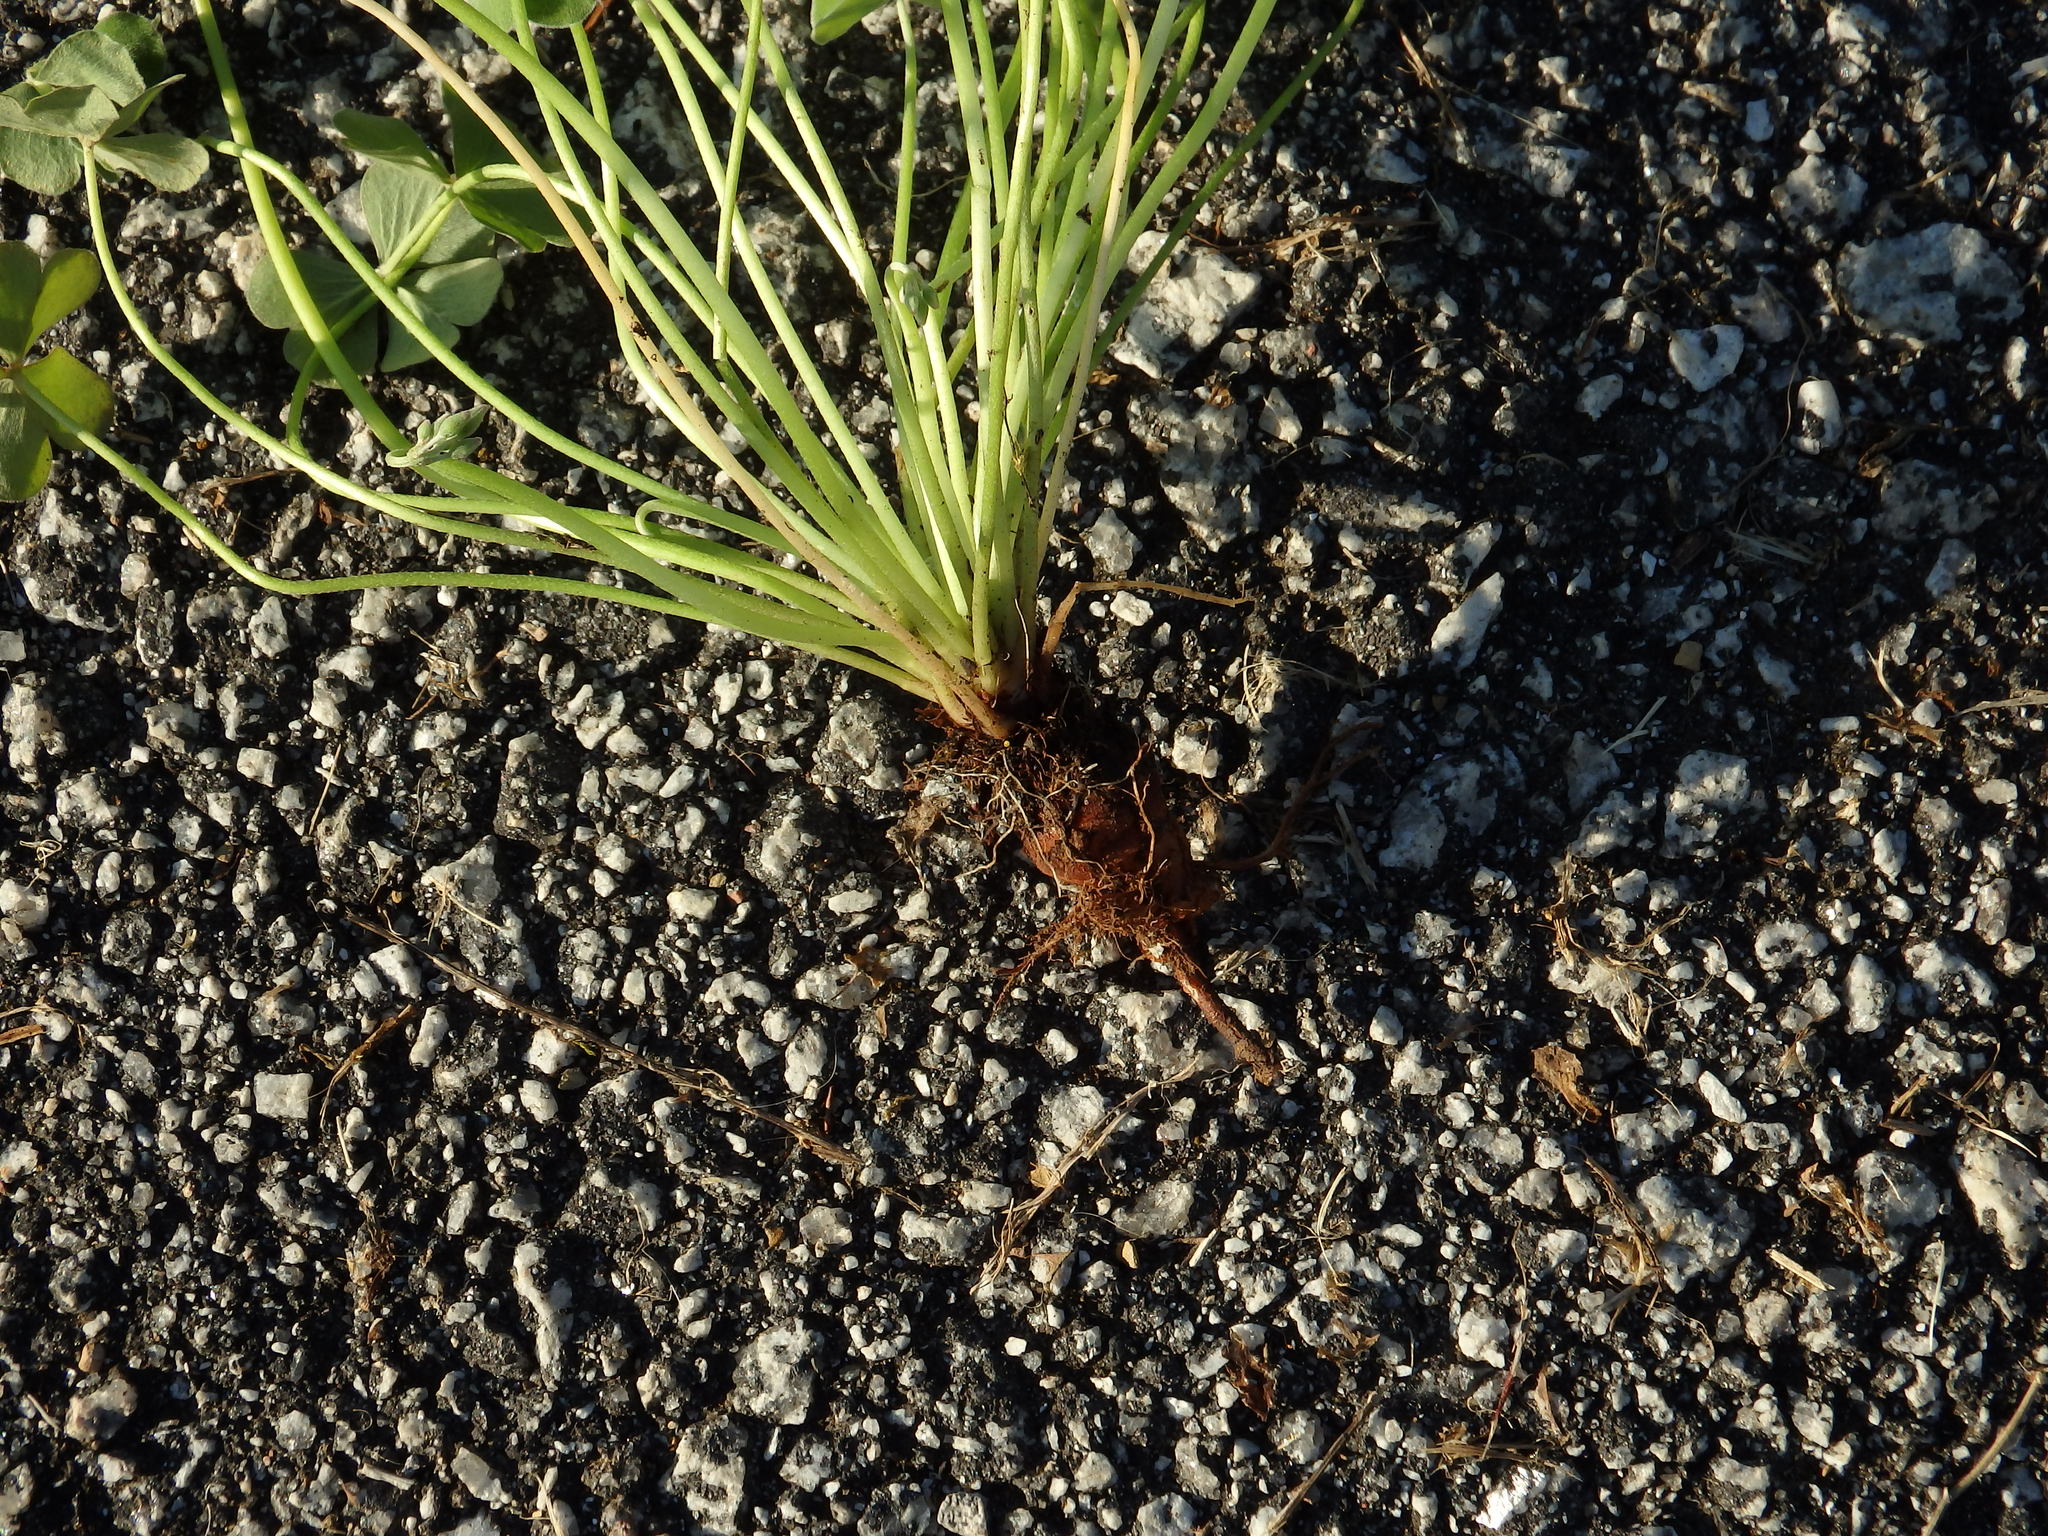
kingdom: Plantae
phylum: Tracheophyta
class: Magnoliopsida
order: Oxalidales
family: Oxalidaceae
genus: Oxalis
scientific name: Oxalis articulata
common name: Pink-sorrel
